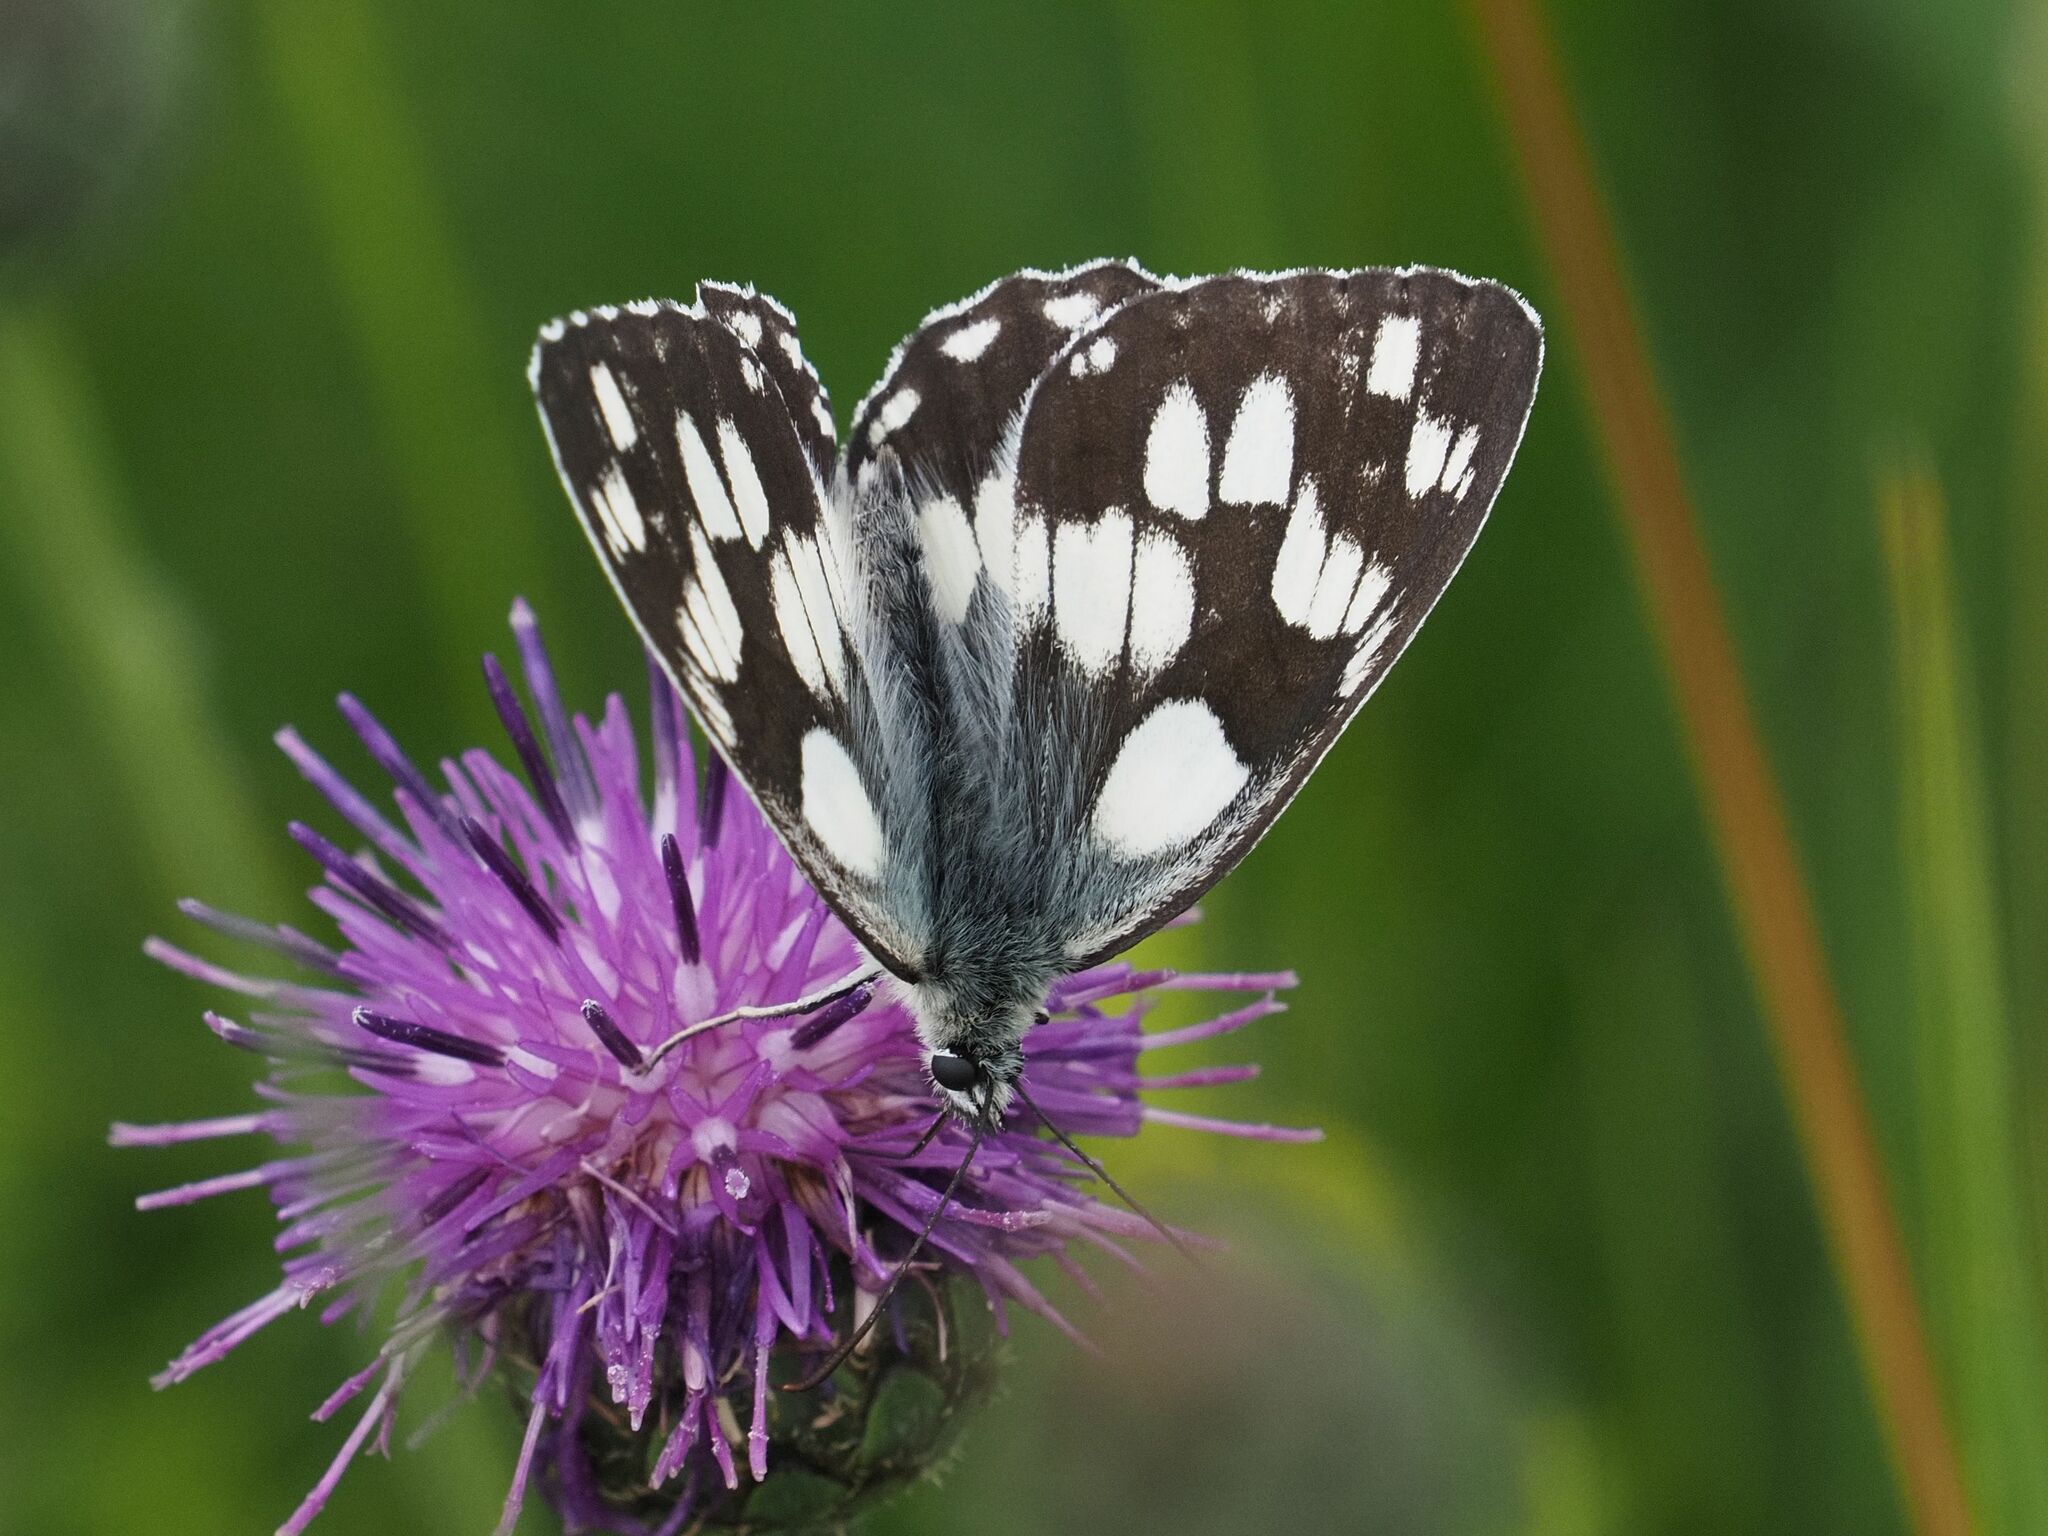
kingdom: Animalia
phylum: Arthropoda
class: Insecta
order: Lepidoptera
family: Nymphalidae
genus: Melanargia
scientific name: Melanargia galathea
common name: Marbled white
